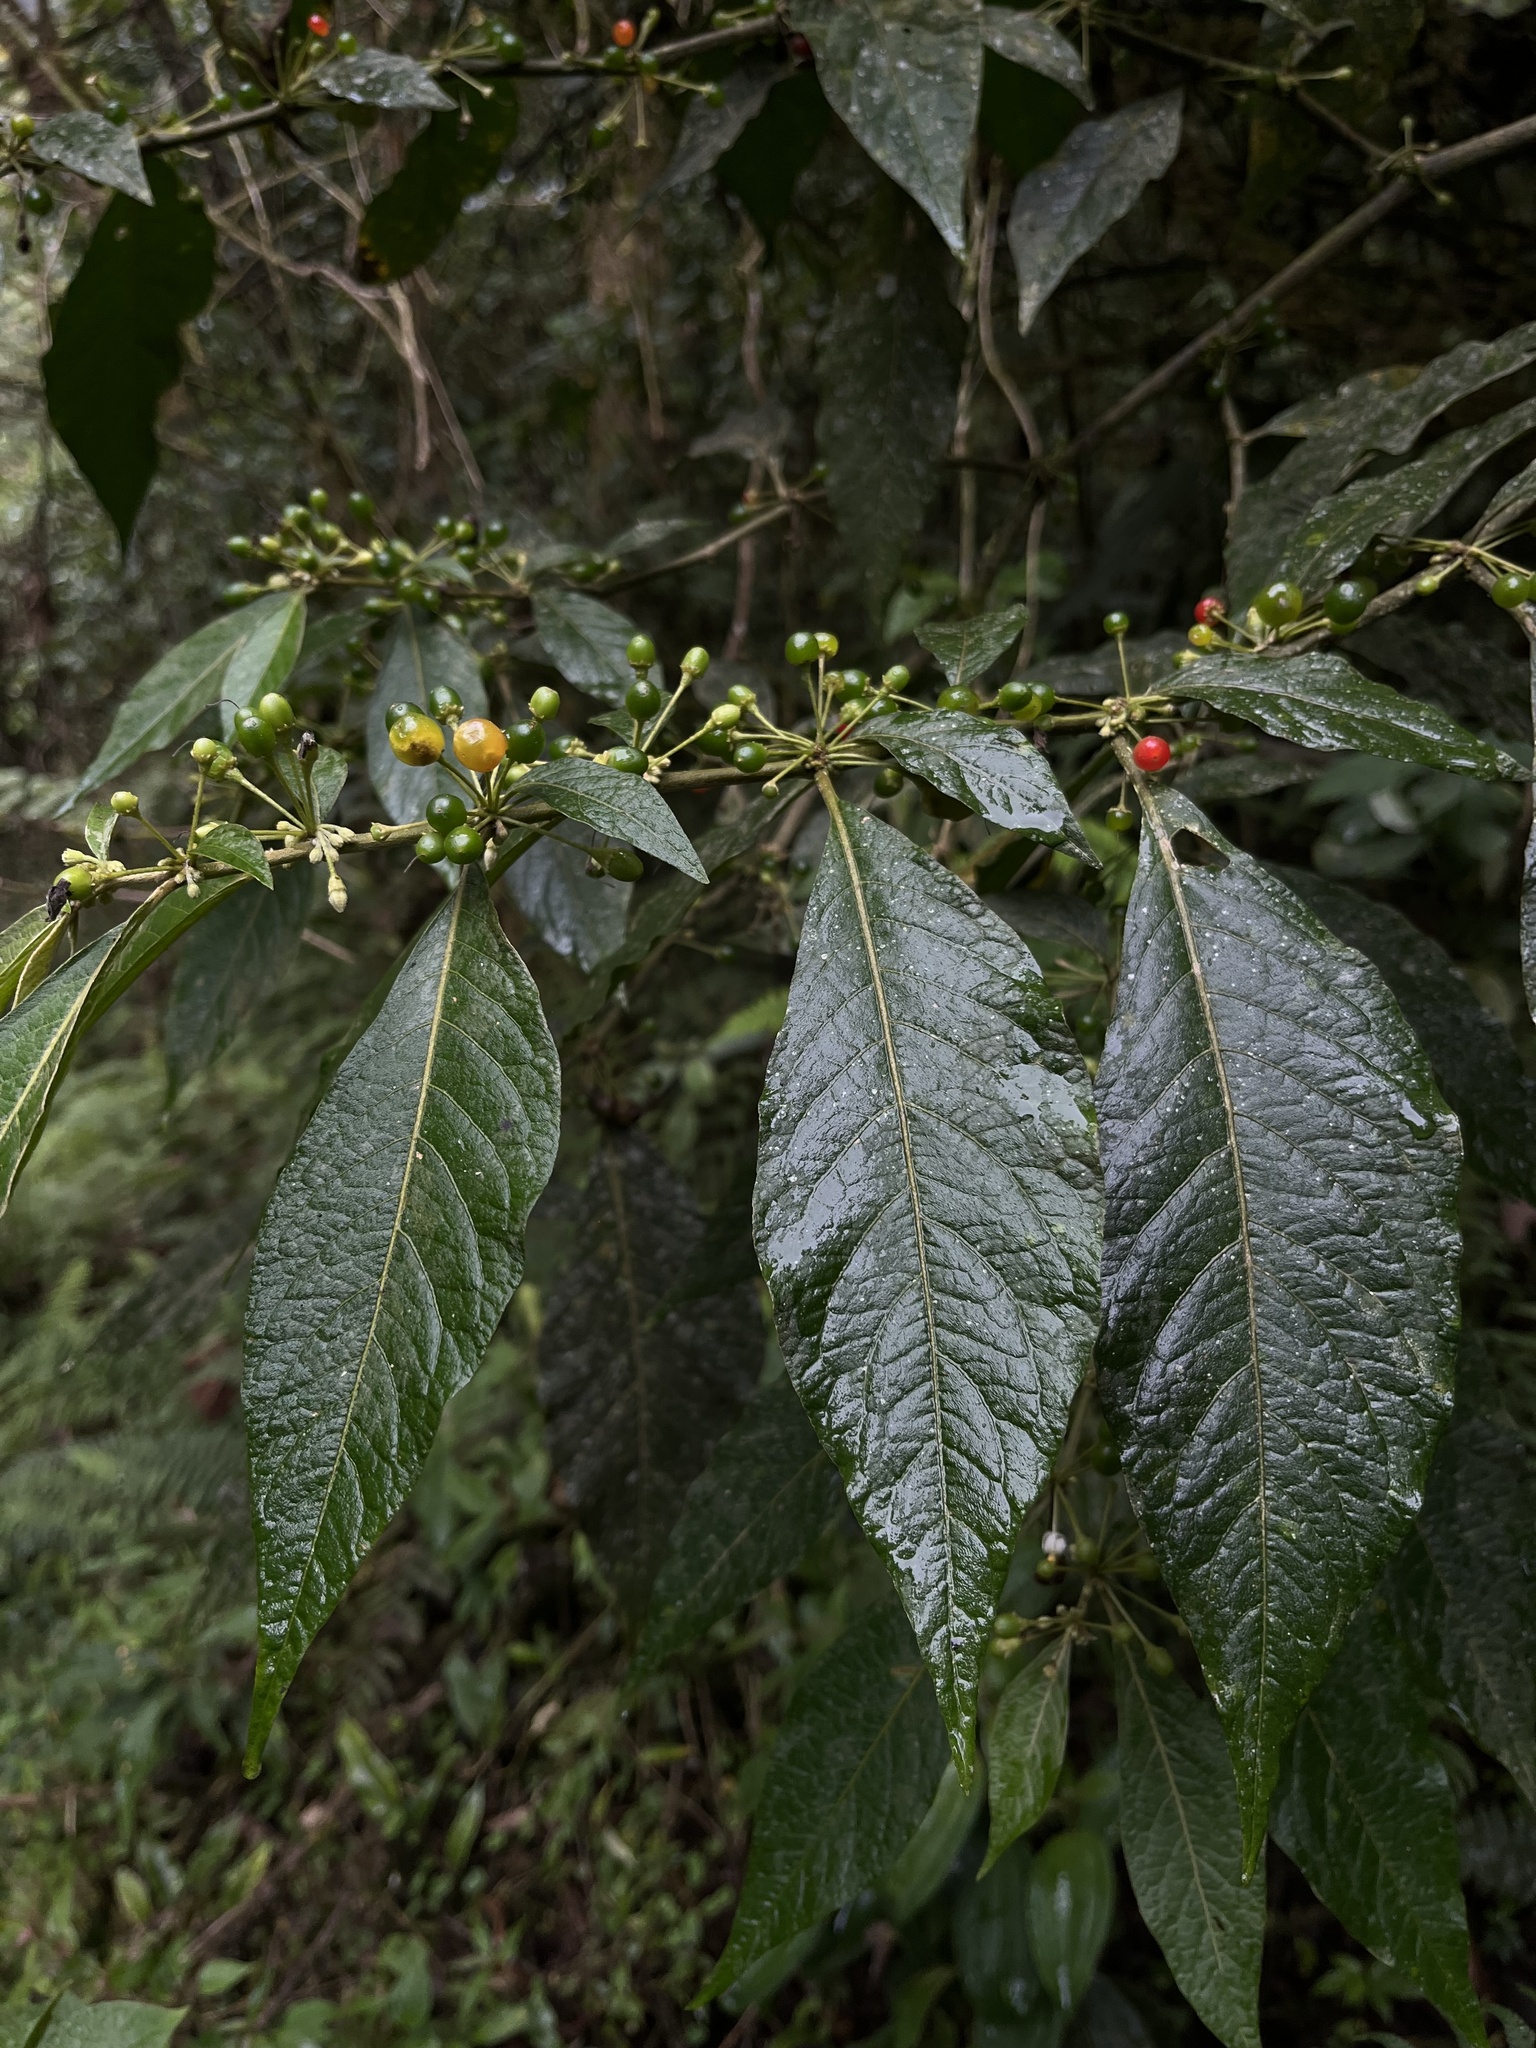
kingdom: Plantae
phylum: Tracheophyta
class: Magnoliopsida
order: Solanales
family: Solanaceae
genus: Lycianthes
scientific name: Lycianthes radiata
